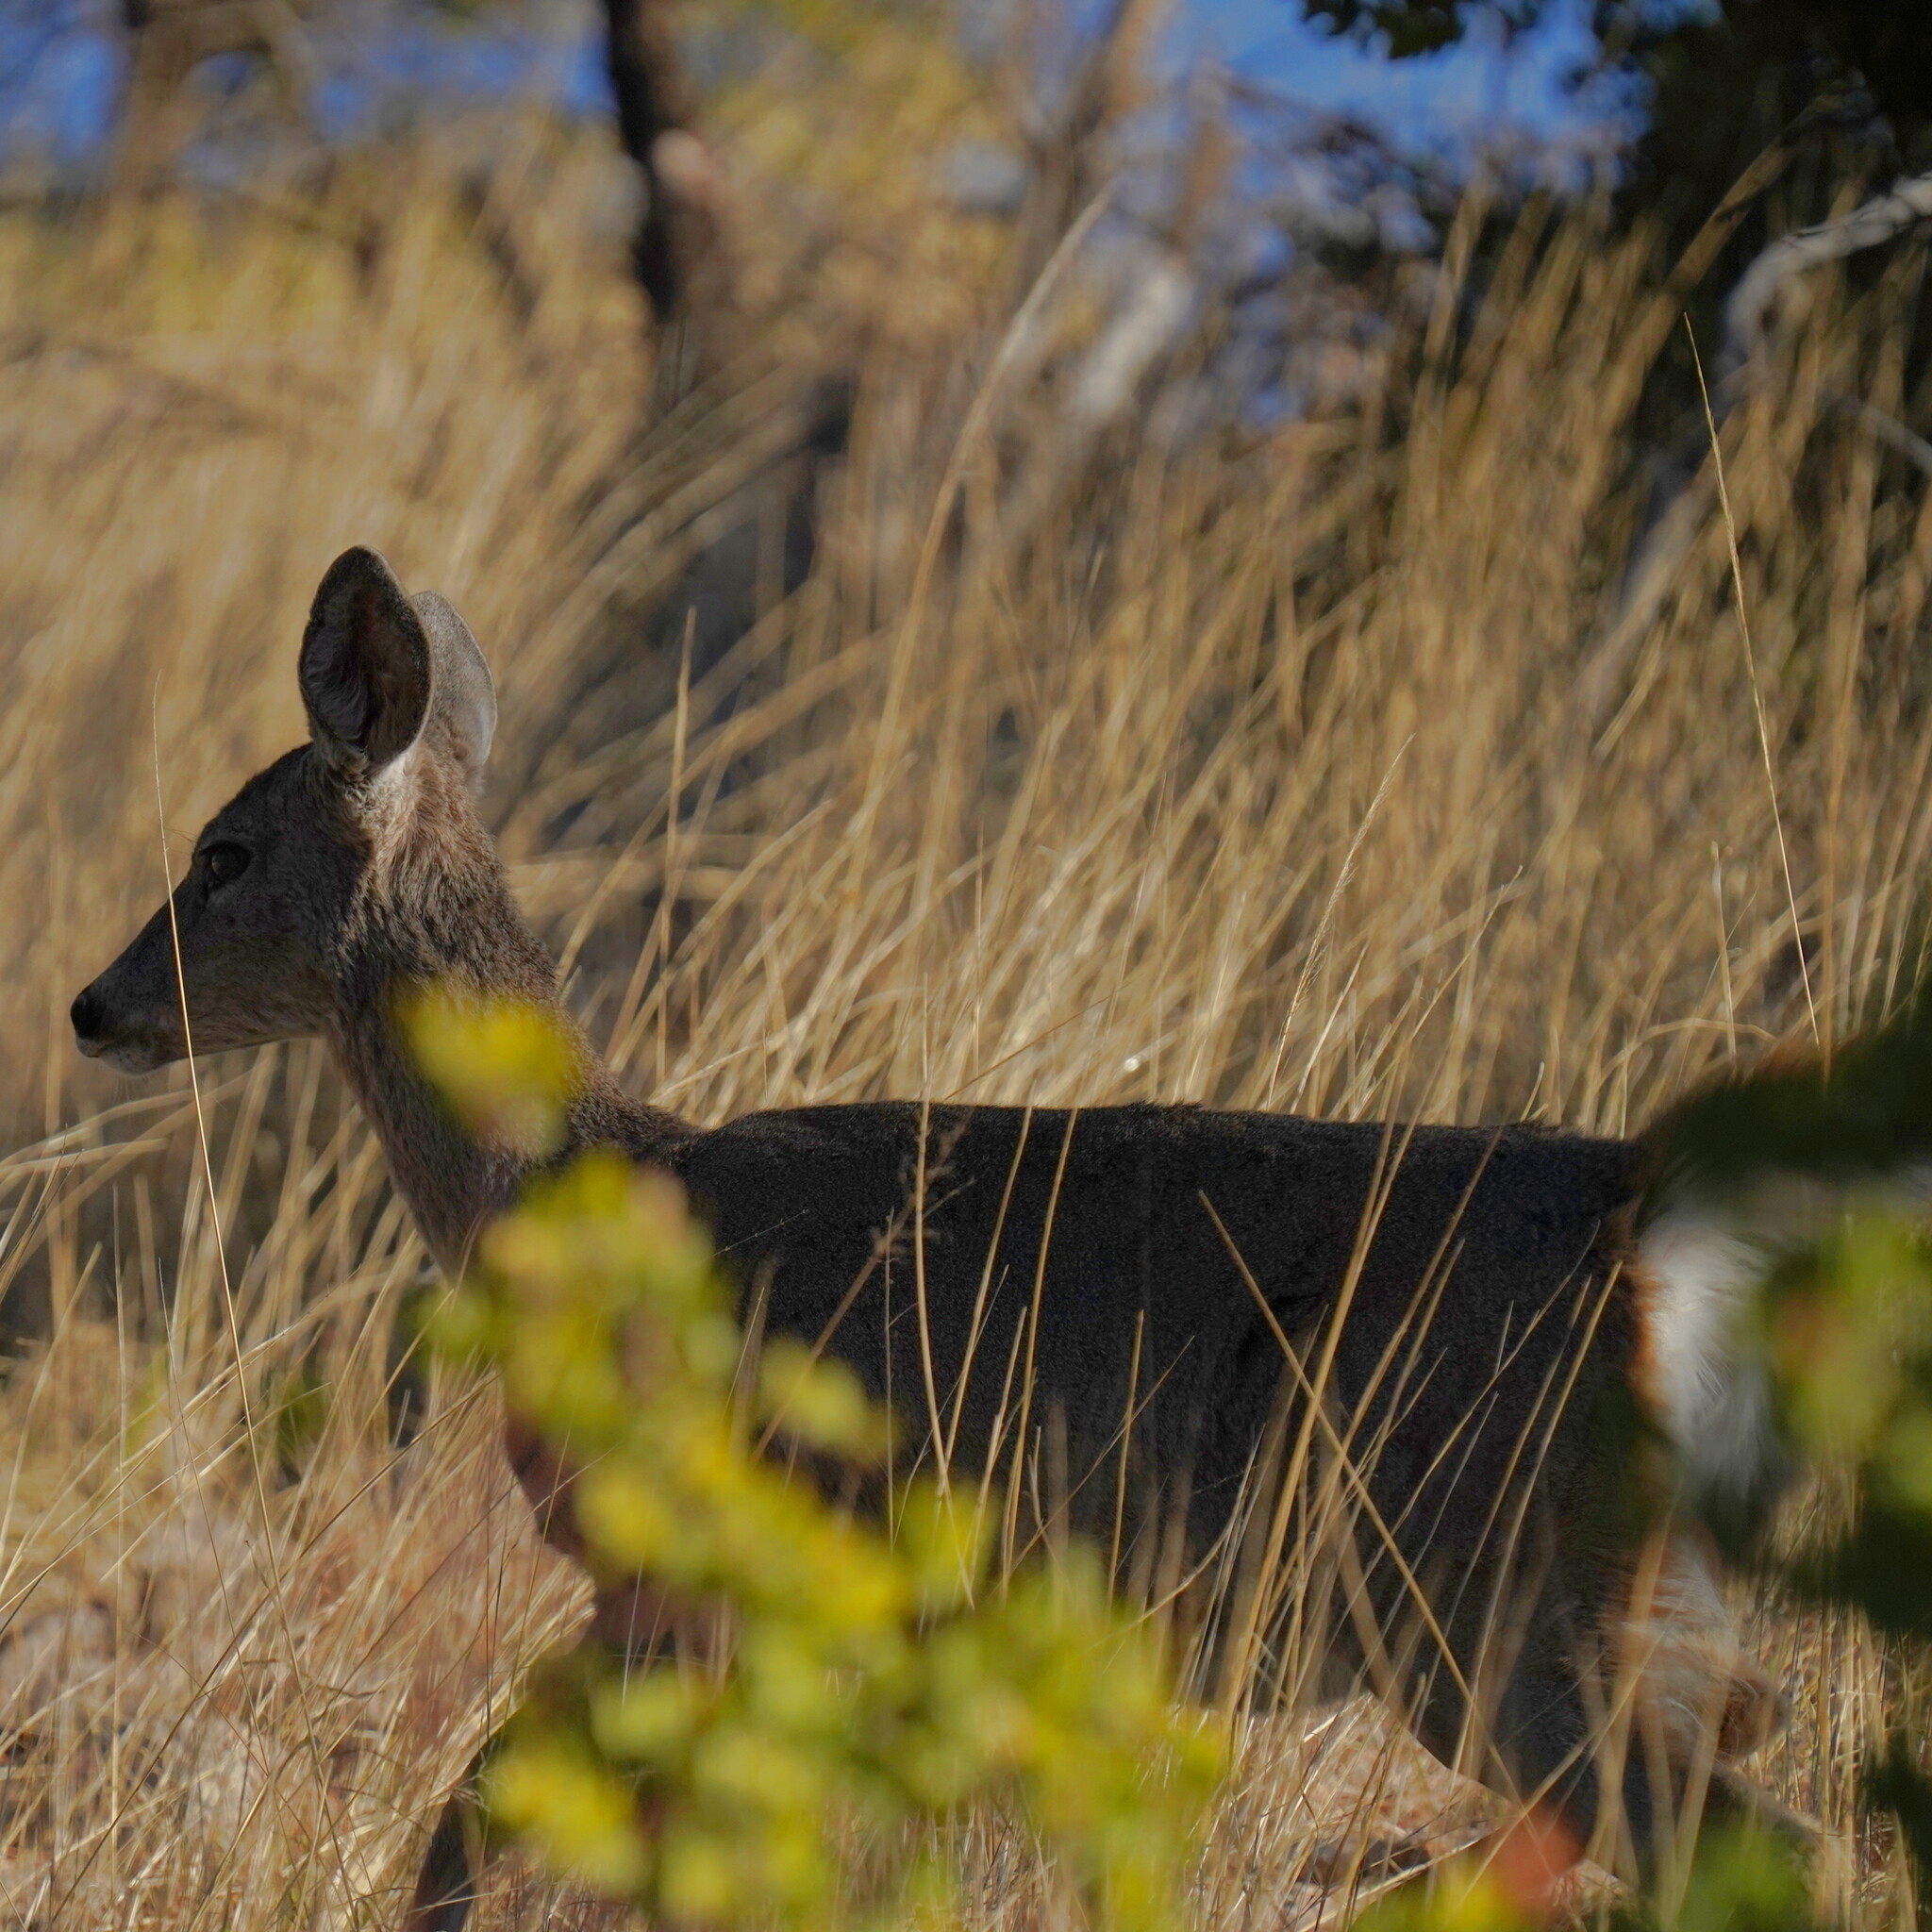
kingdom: Animalia
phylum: Chordata
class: Mammalia
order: Artiodactyla
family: Cervidae
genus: Odocoileus
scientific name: Odocoileus virginianus
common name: White-tailed deer
